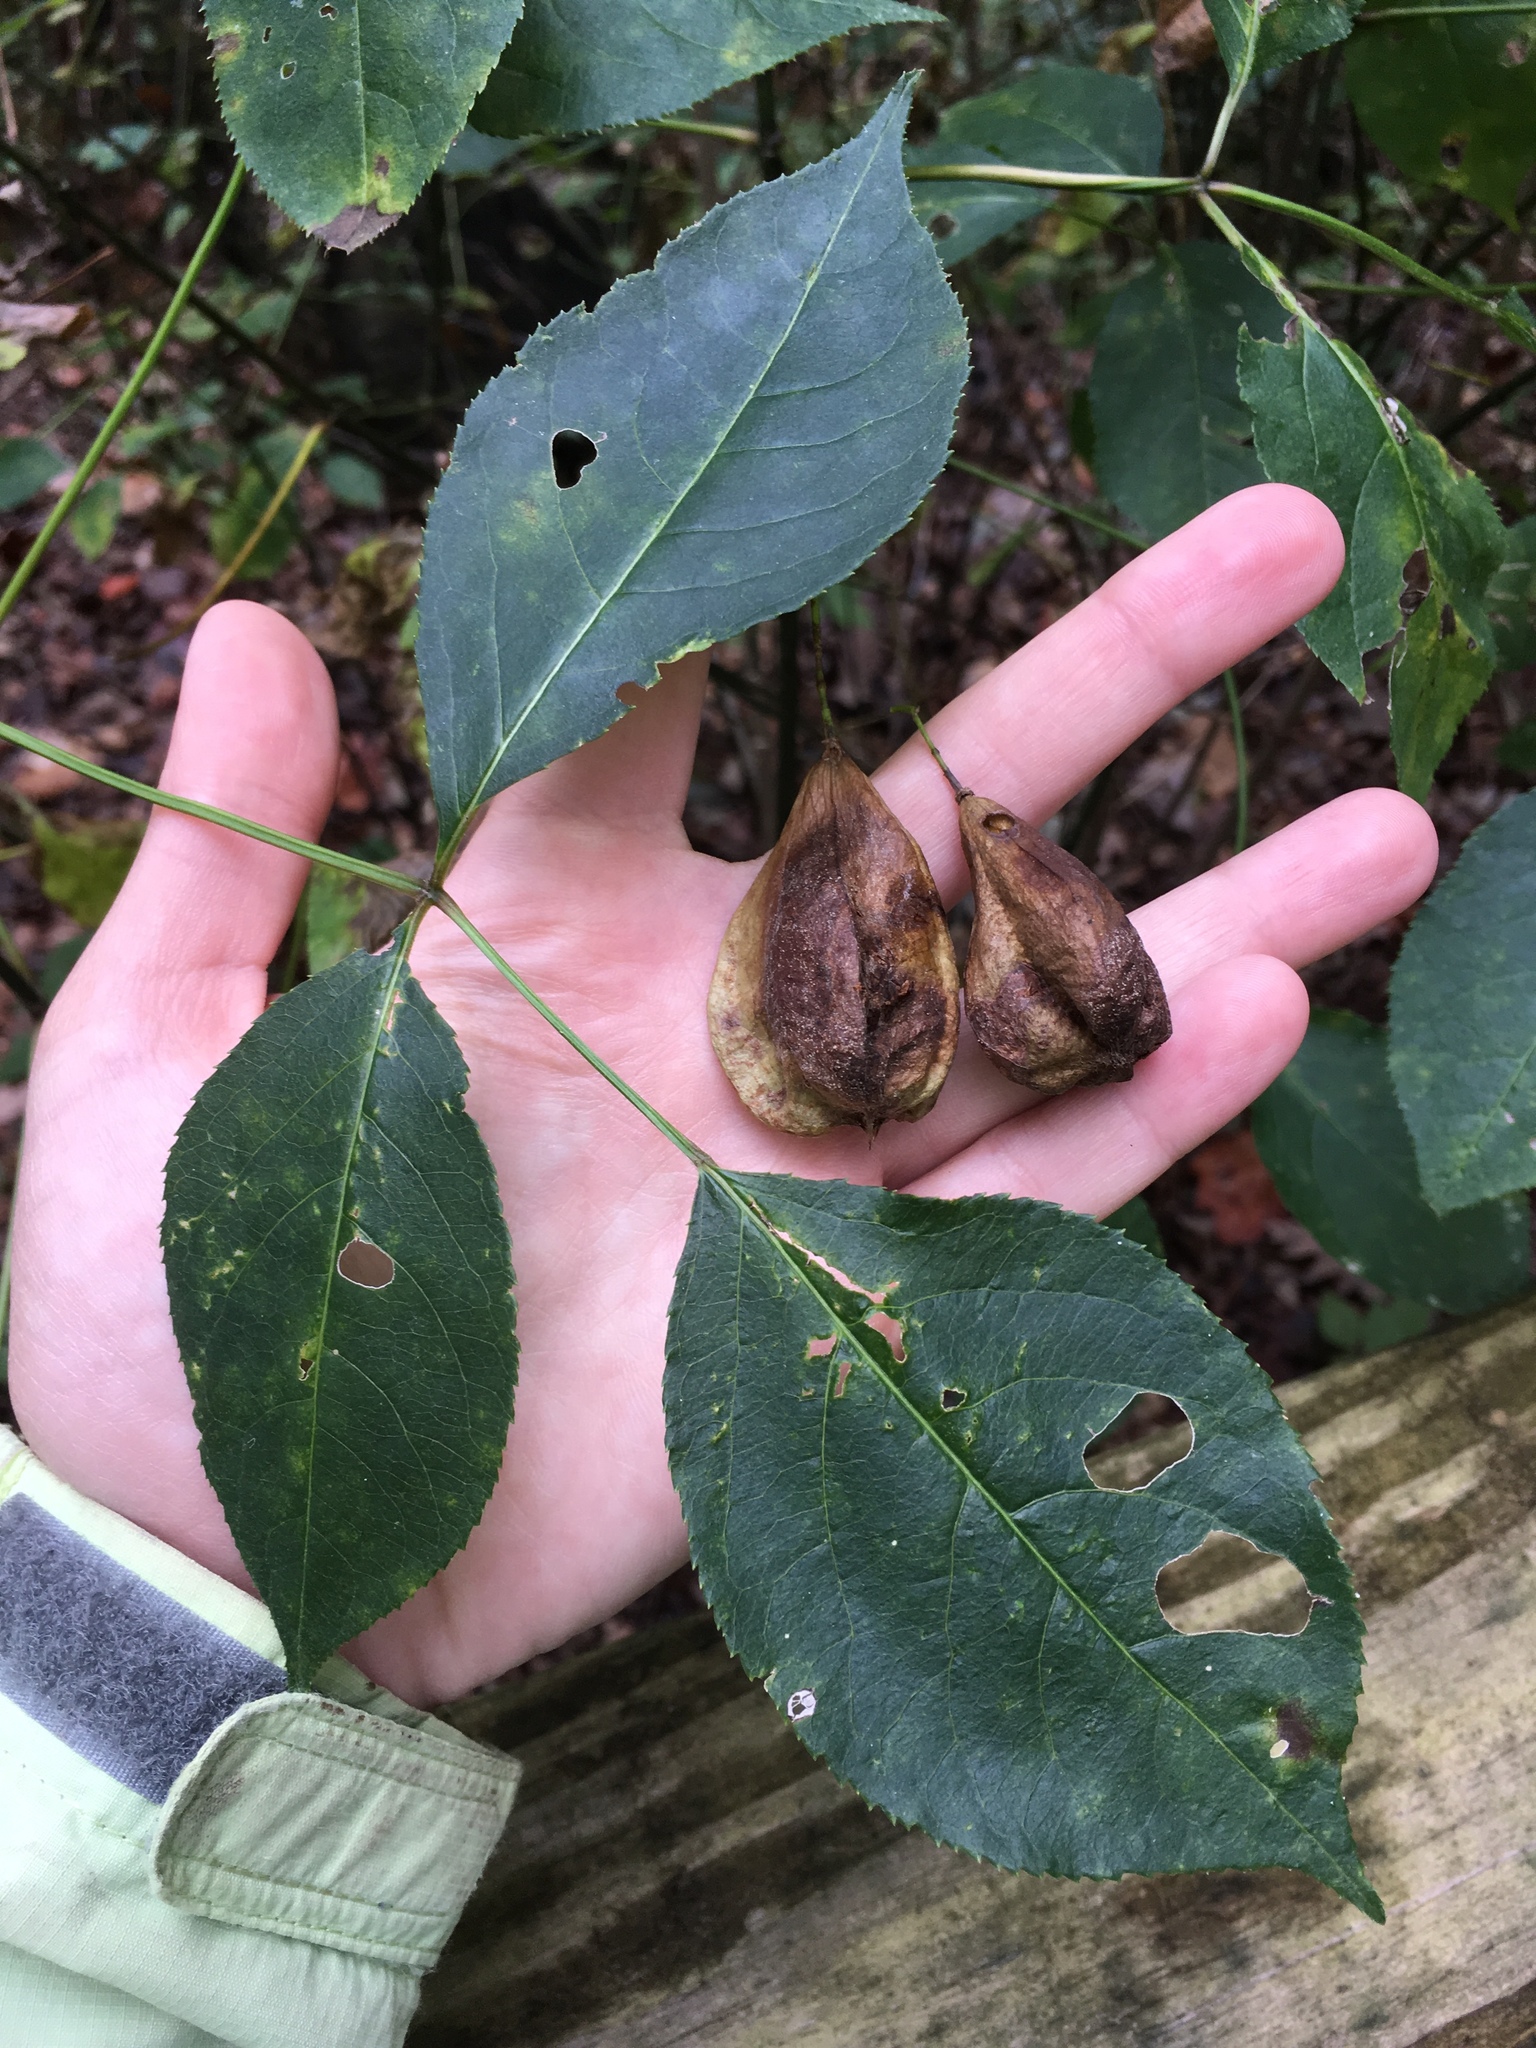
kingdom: Plantae
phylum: Tracheophyta
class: Magnoliopsida
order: Crossosomatales
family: Staphyleaceae
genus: Staphylea
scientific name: Staphylea trifolia
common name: American bladdernut
